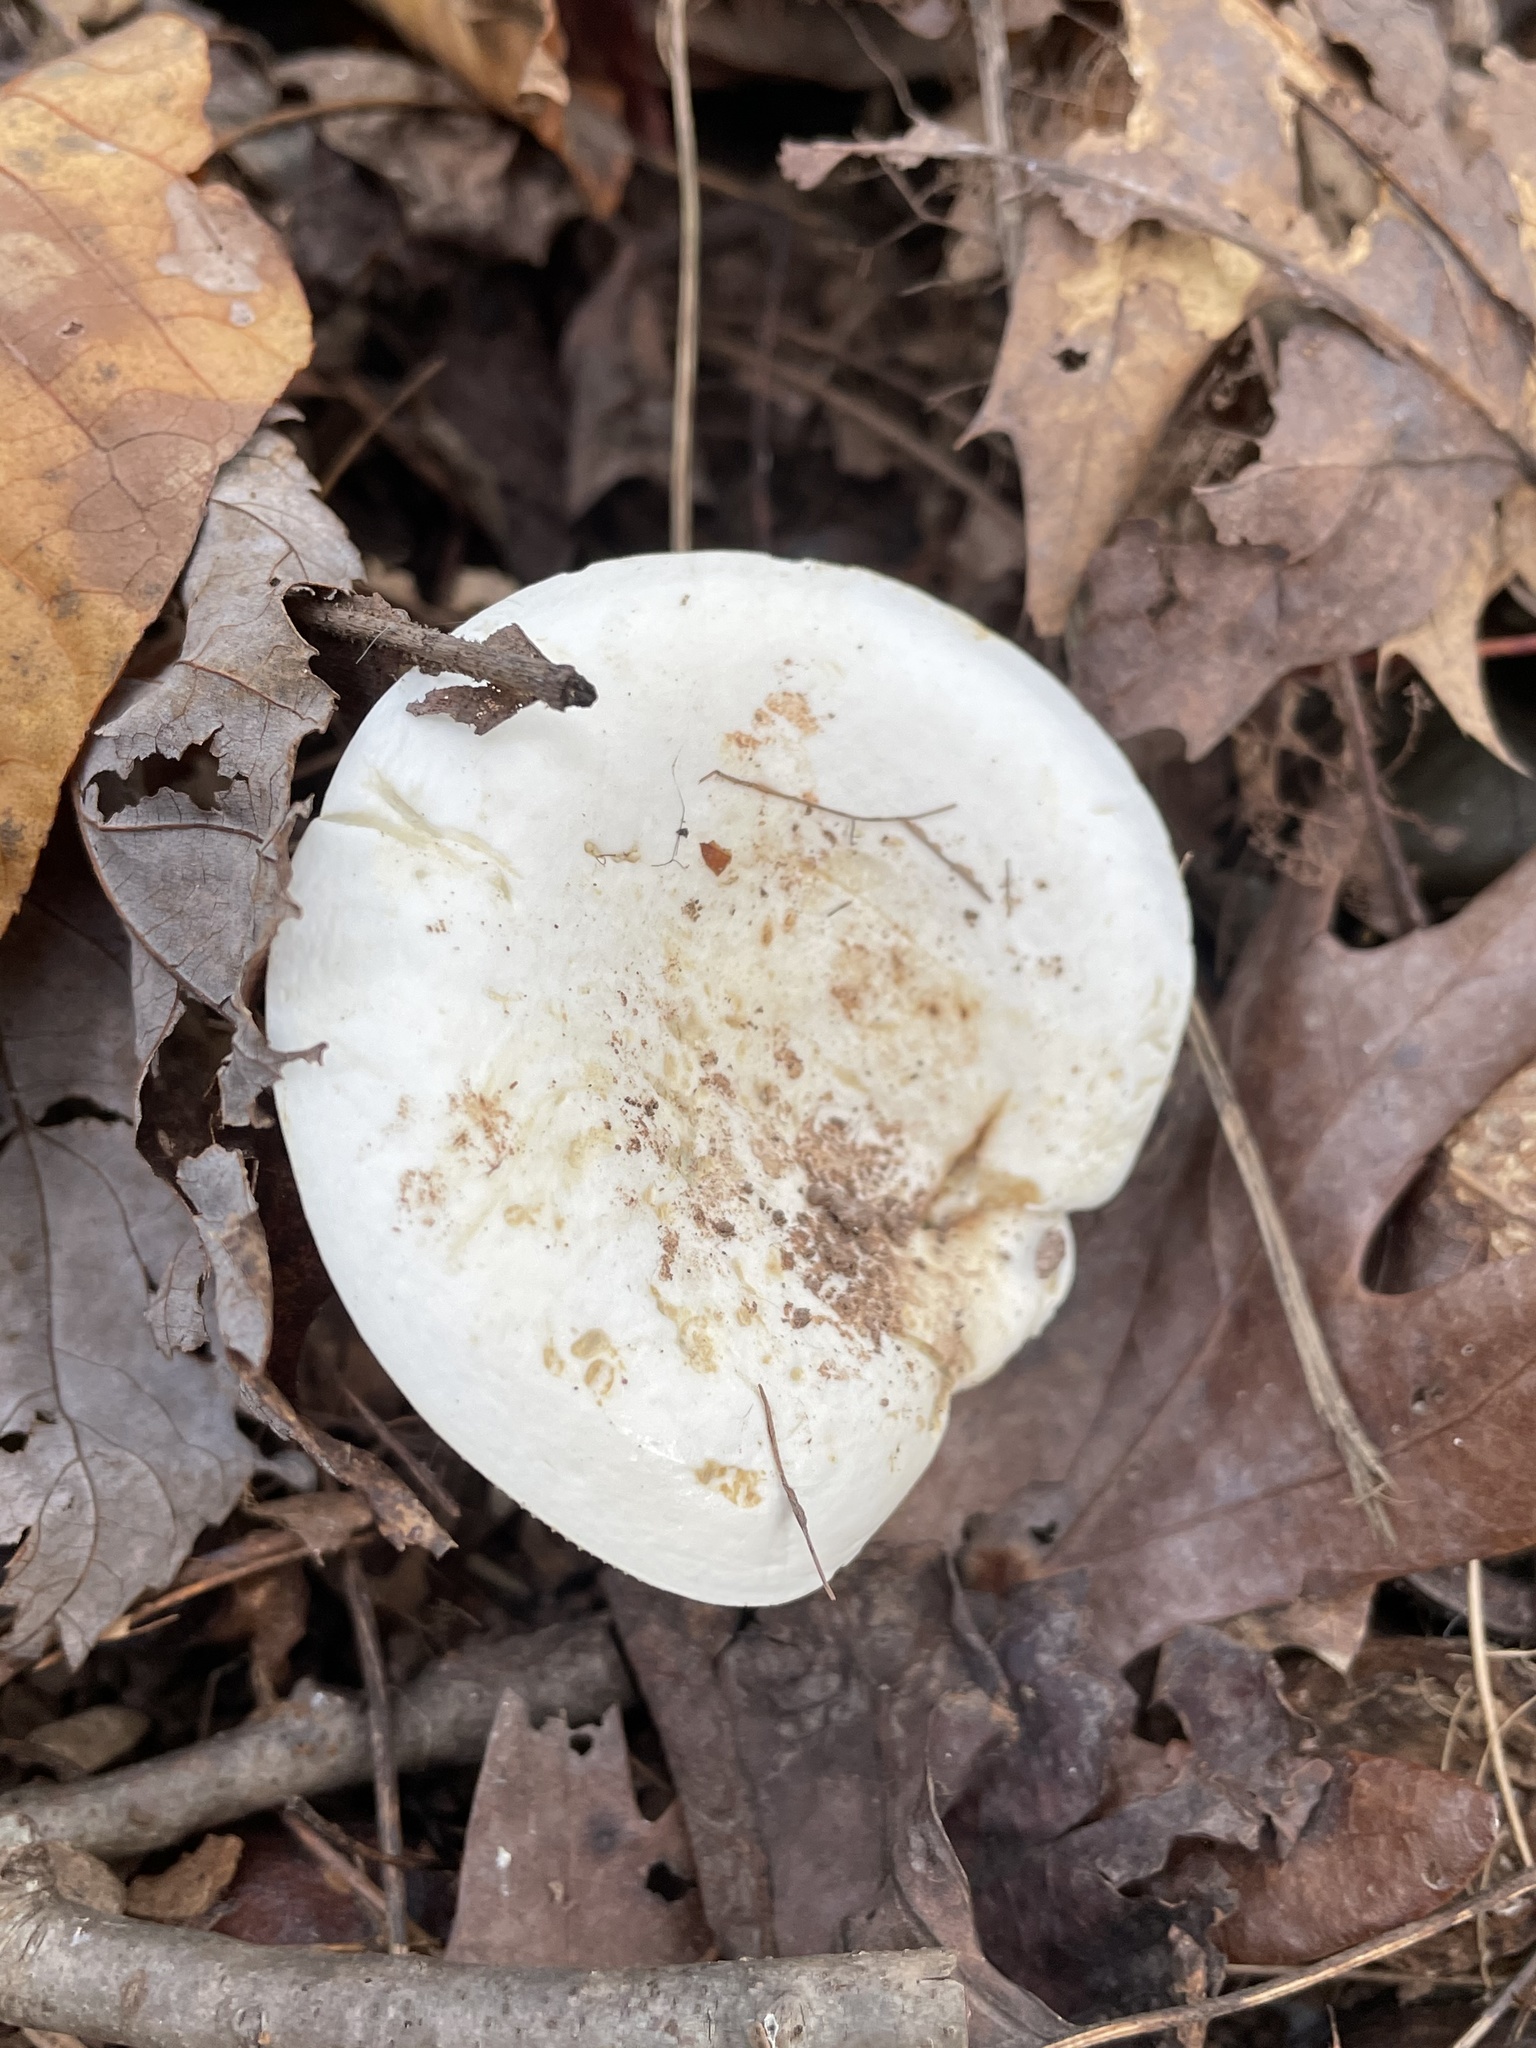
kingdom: Fungi
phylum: Basidiomycota
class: Agaricomycetes
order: Russulales
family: Russulaceae
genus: Lactifluus
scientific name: Lactifluus glaucescens
